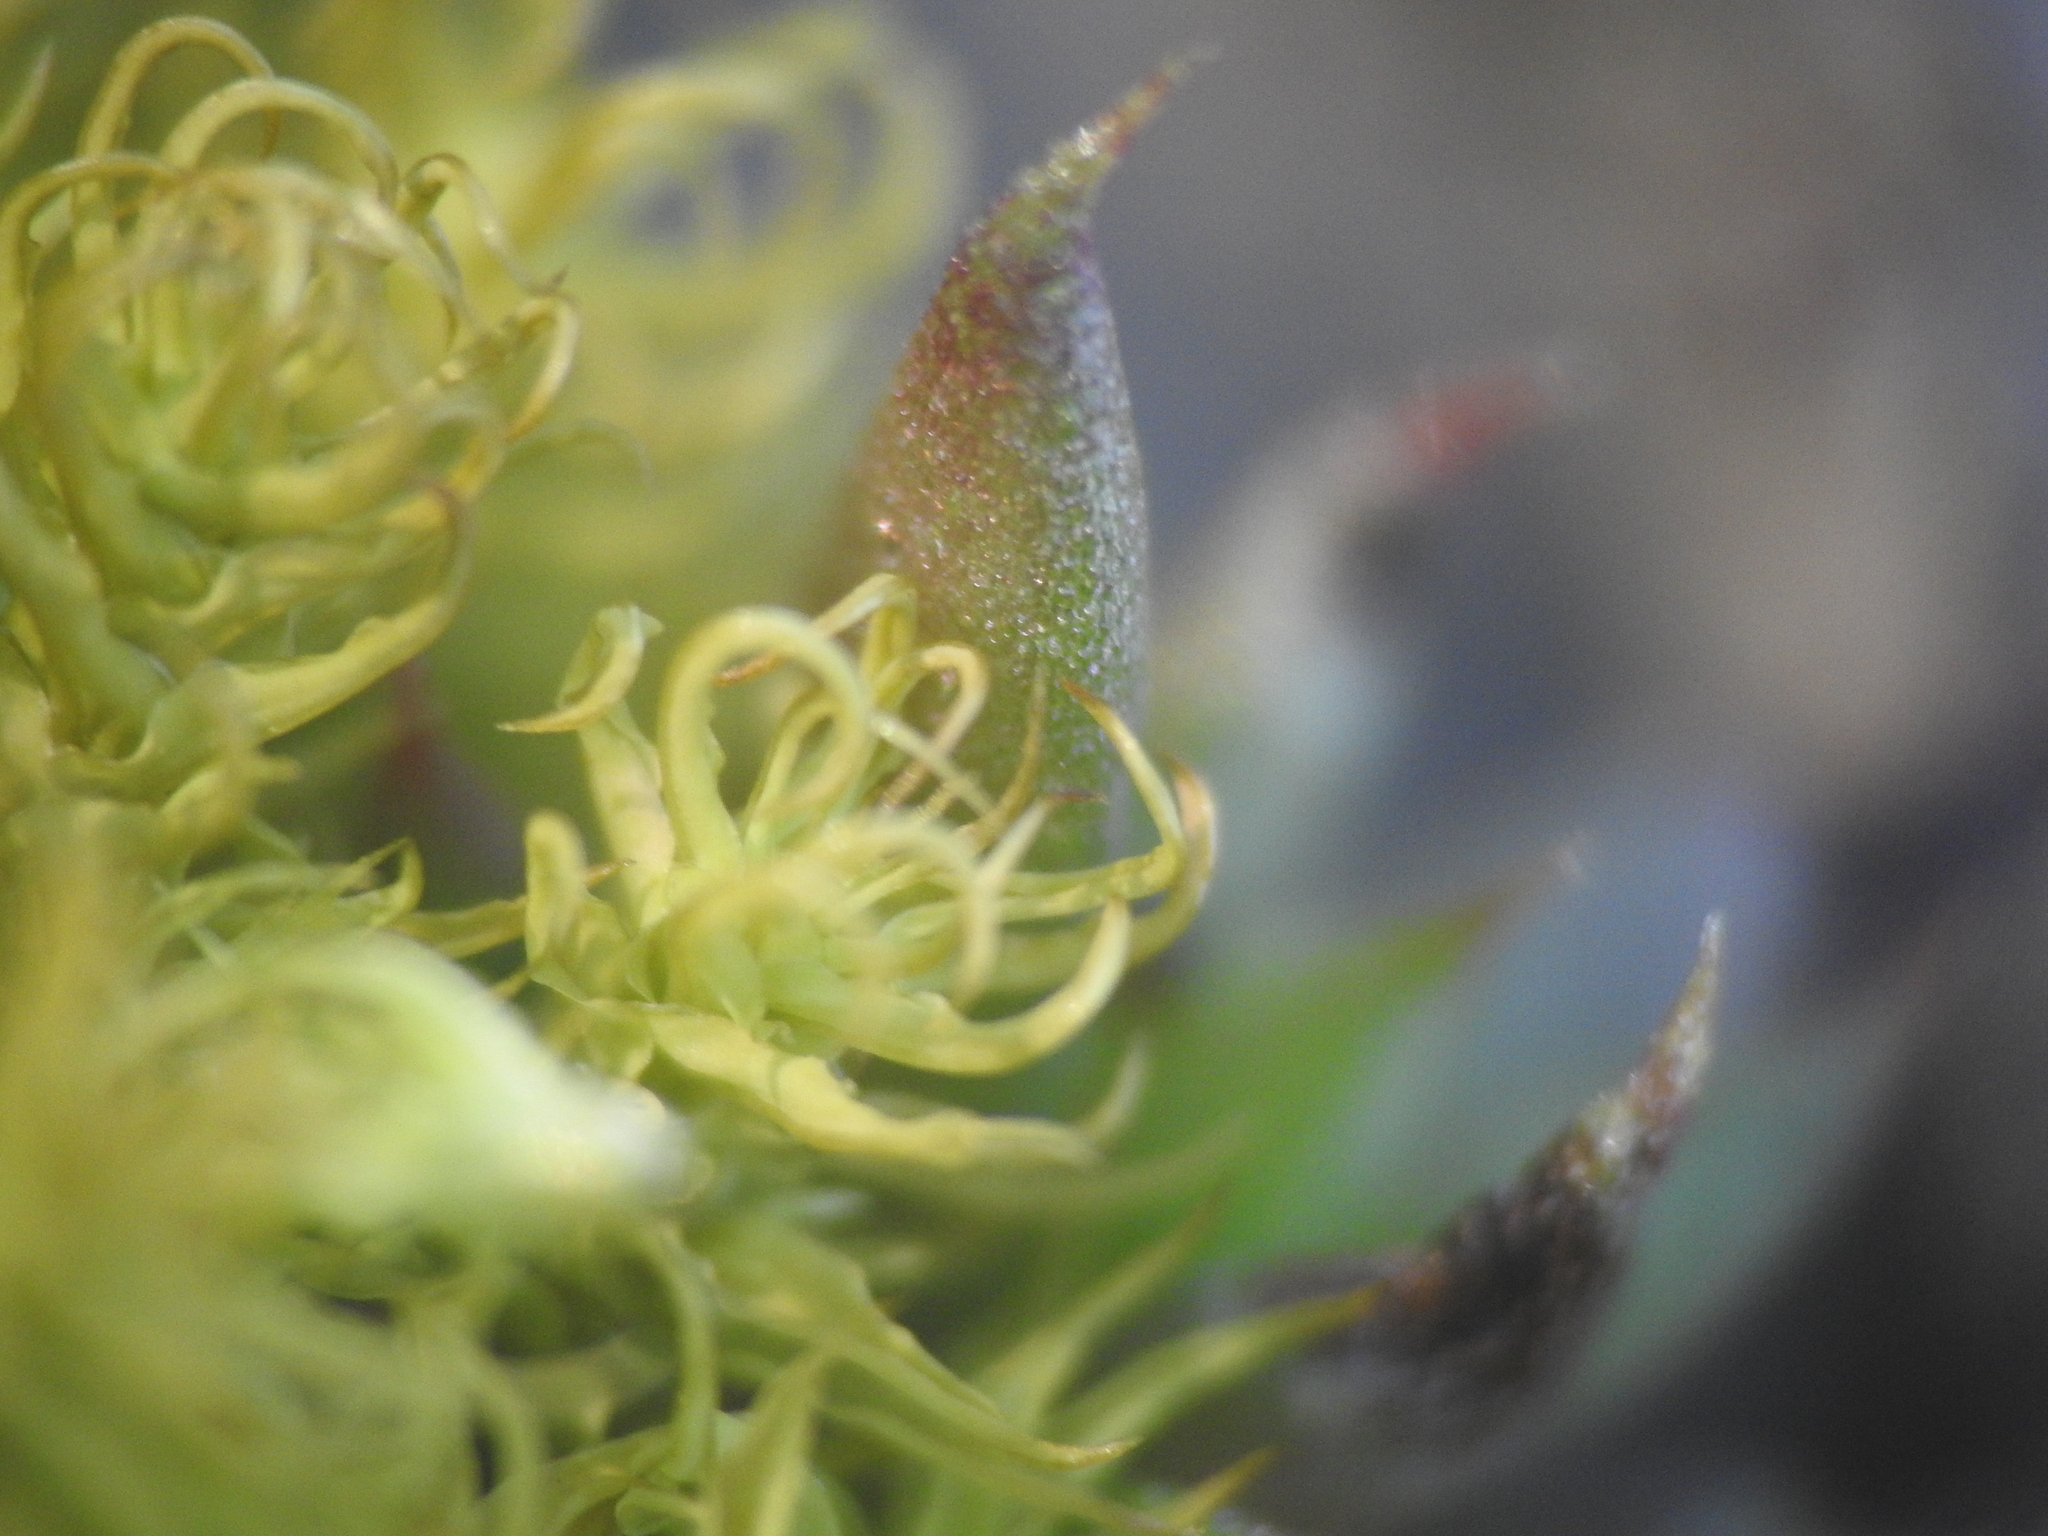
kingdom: Plantae
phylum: Bryophyta
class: Bryopsida
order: Pottiales
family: Pottiaceae
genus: Pleurochaete
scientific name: Pleurochaete squarrosa
